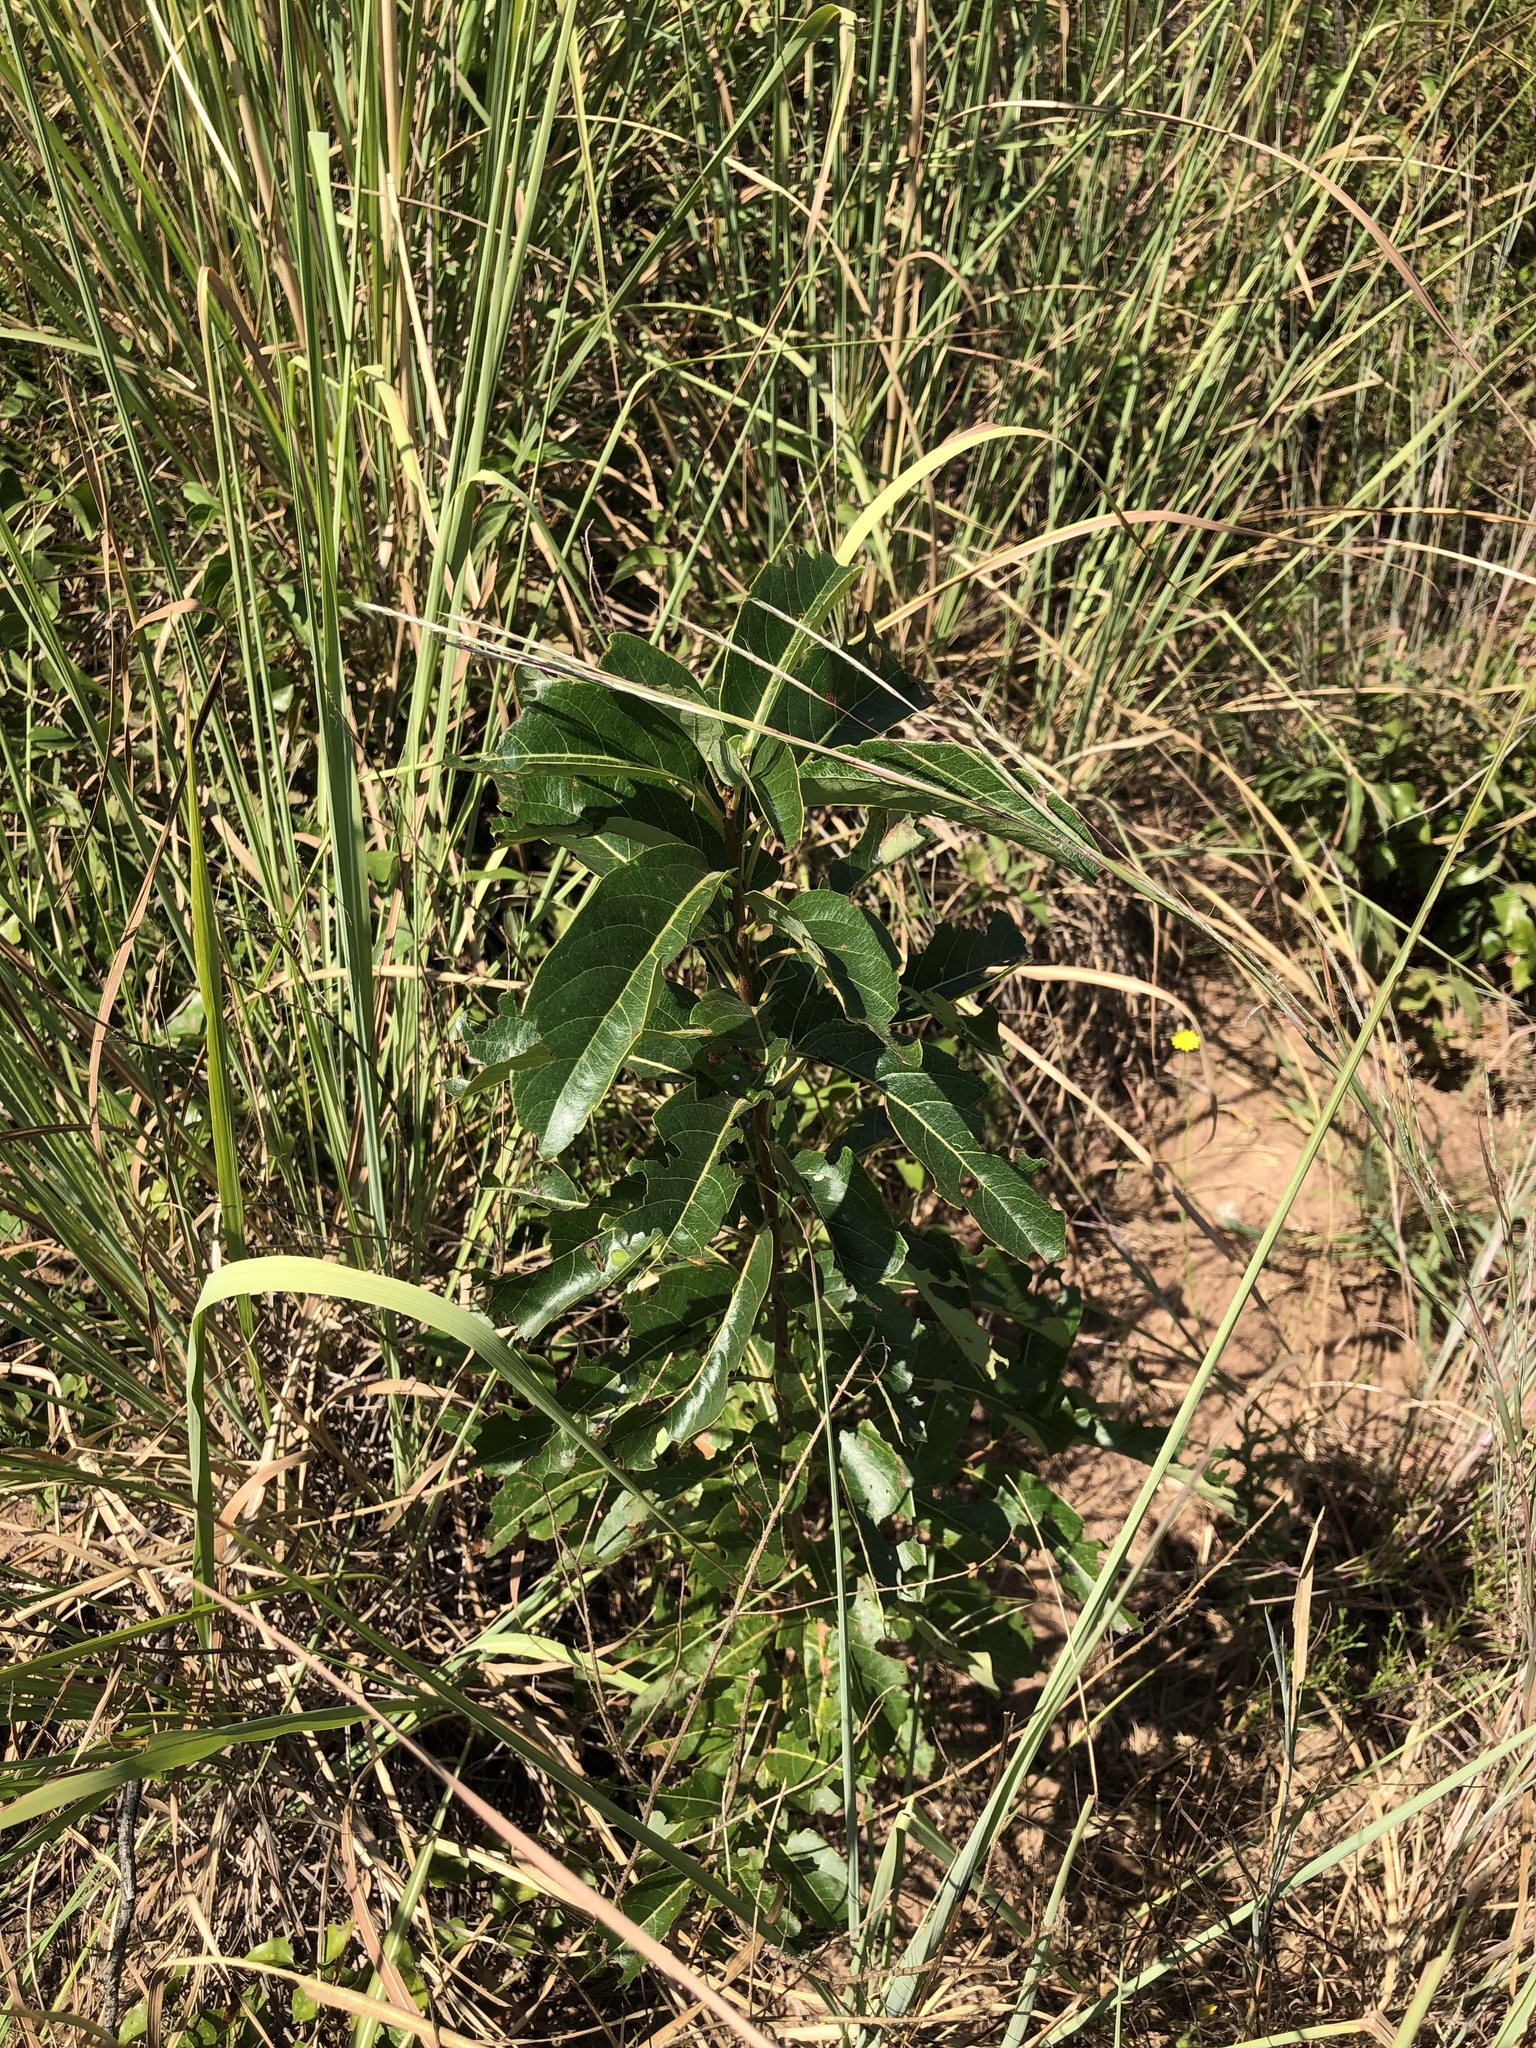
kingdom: Plantae
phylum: Tracheophyta
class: Magnoliopsida
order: Ericales
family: Ebenaceae
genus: Diospyros
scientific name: Diospyros virginiana
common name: Persimmon
